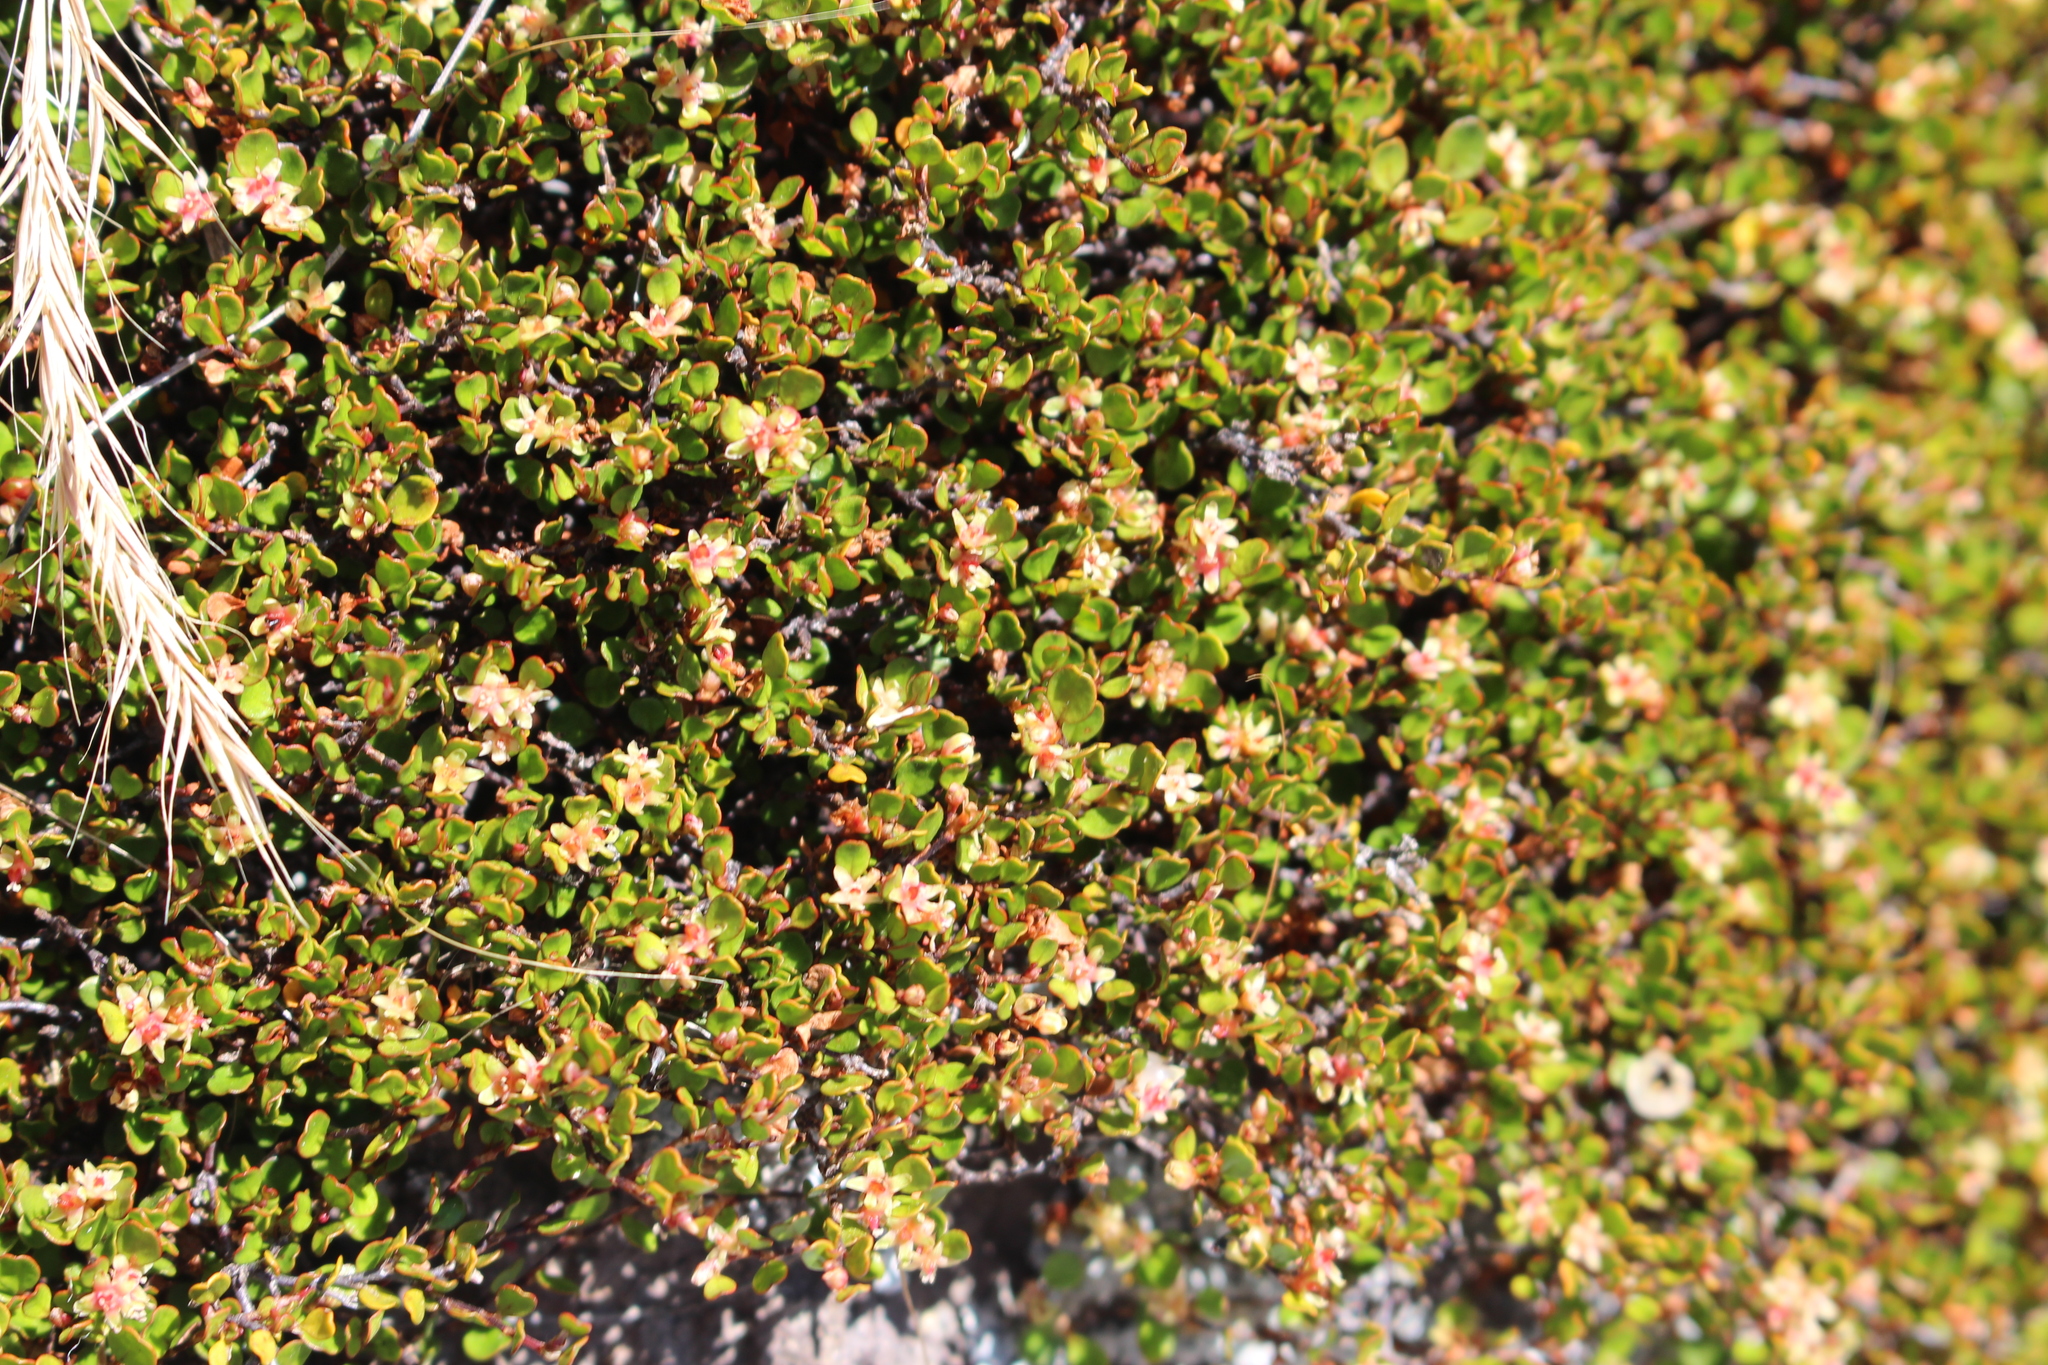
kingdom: Plantae
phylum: Tracheophyta
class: Magnoliopsida
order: Caryophyllales
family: Polygonaceae
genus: Muehlenbeckia
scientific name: Muehlenbeckia axillaris
